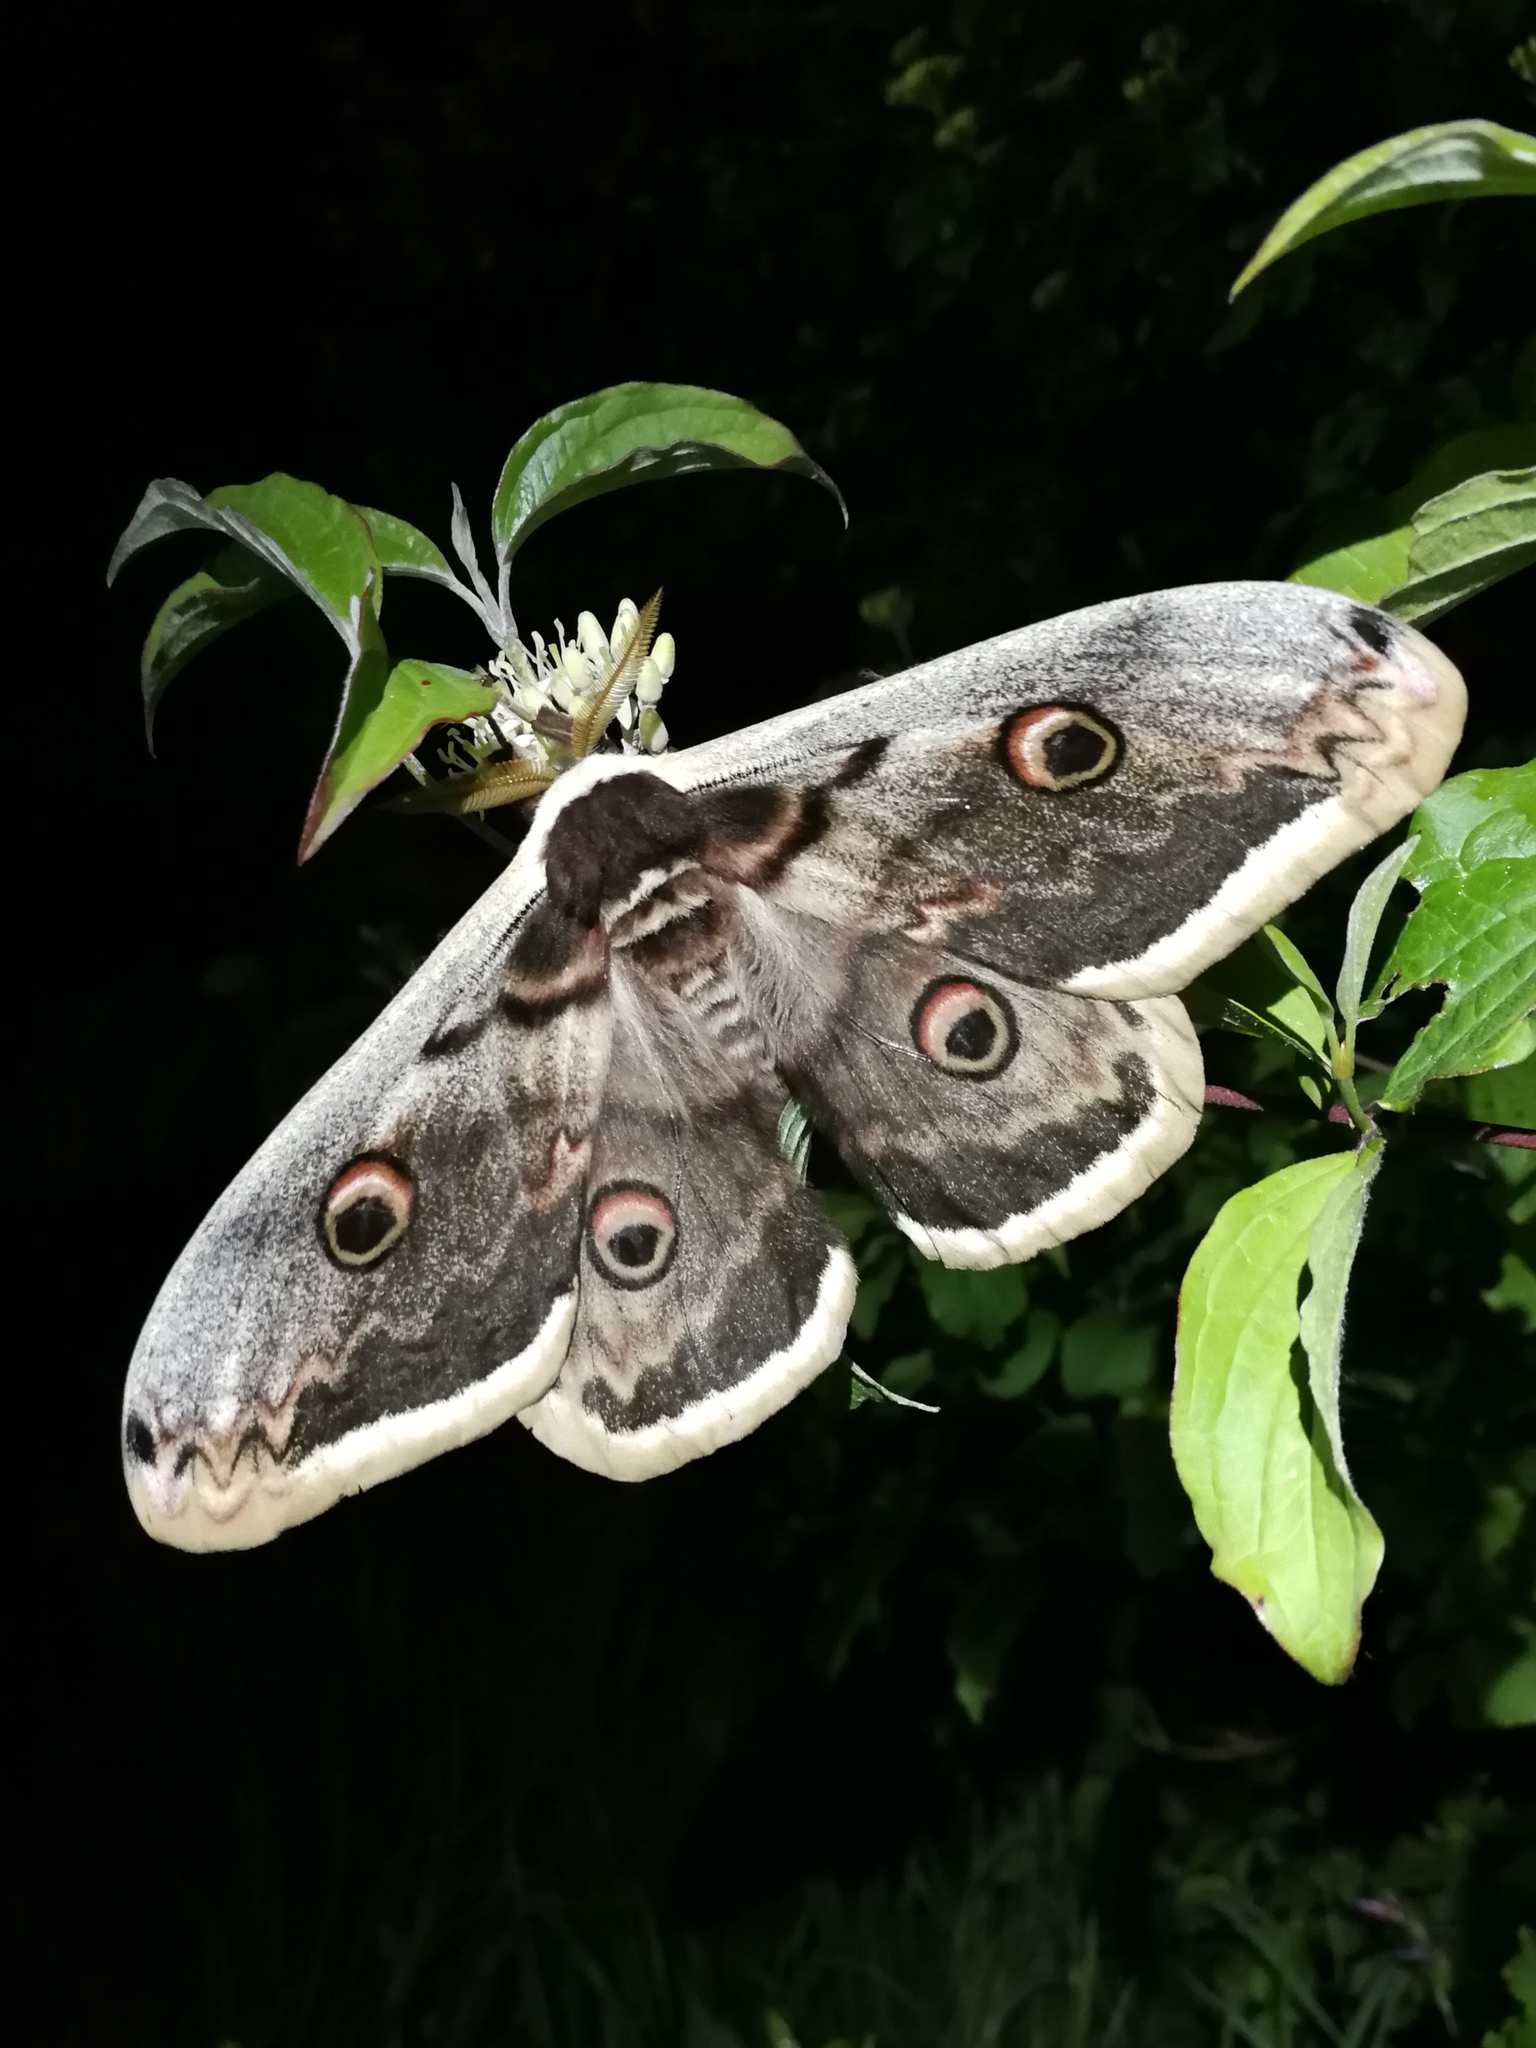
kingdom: Animalia
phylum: Arthropoda
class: Insecta
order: Lepidoptera
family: Saturniidae
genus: Saturnia
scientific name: Saturnia pyri
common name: Great peacock moth
